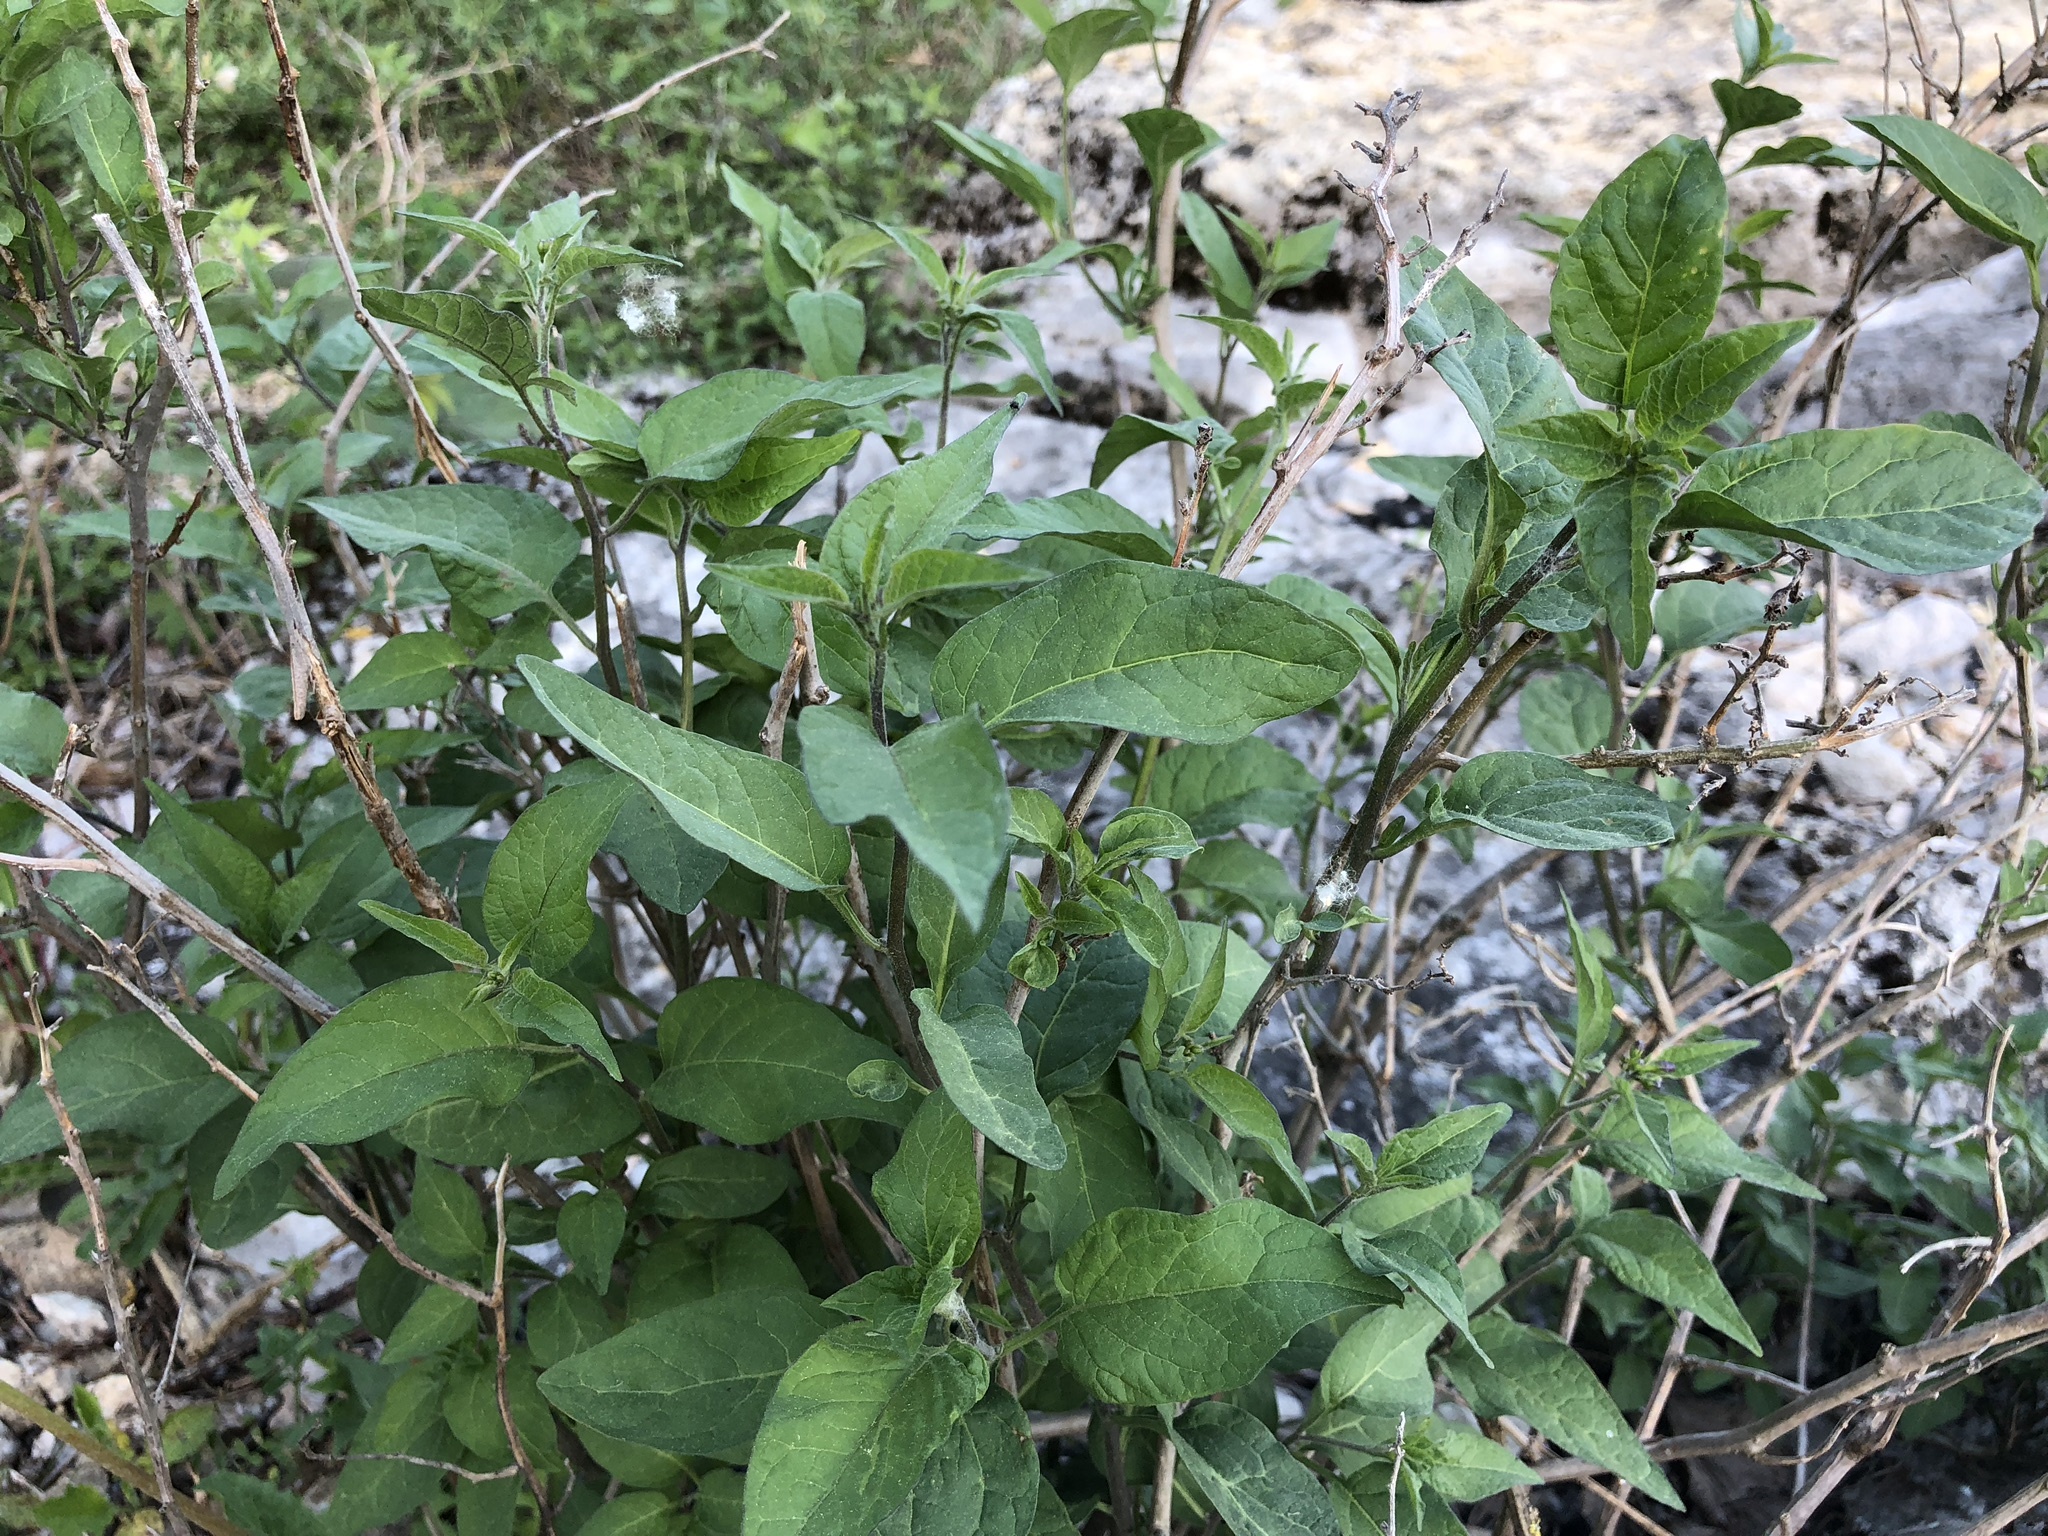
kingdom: Plantae
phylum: Tracheophyta
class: Magnoliopsida
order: Solanales
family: Solanaceae
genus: Solanum
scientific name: Solanum dulcamara
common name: Climbing nightshade
